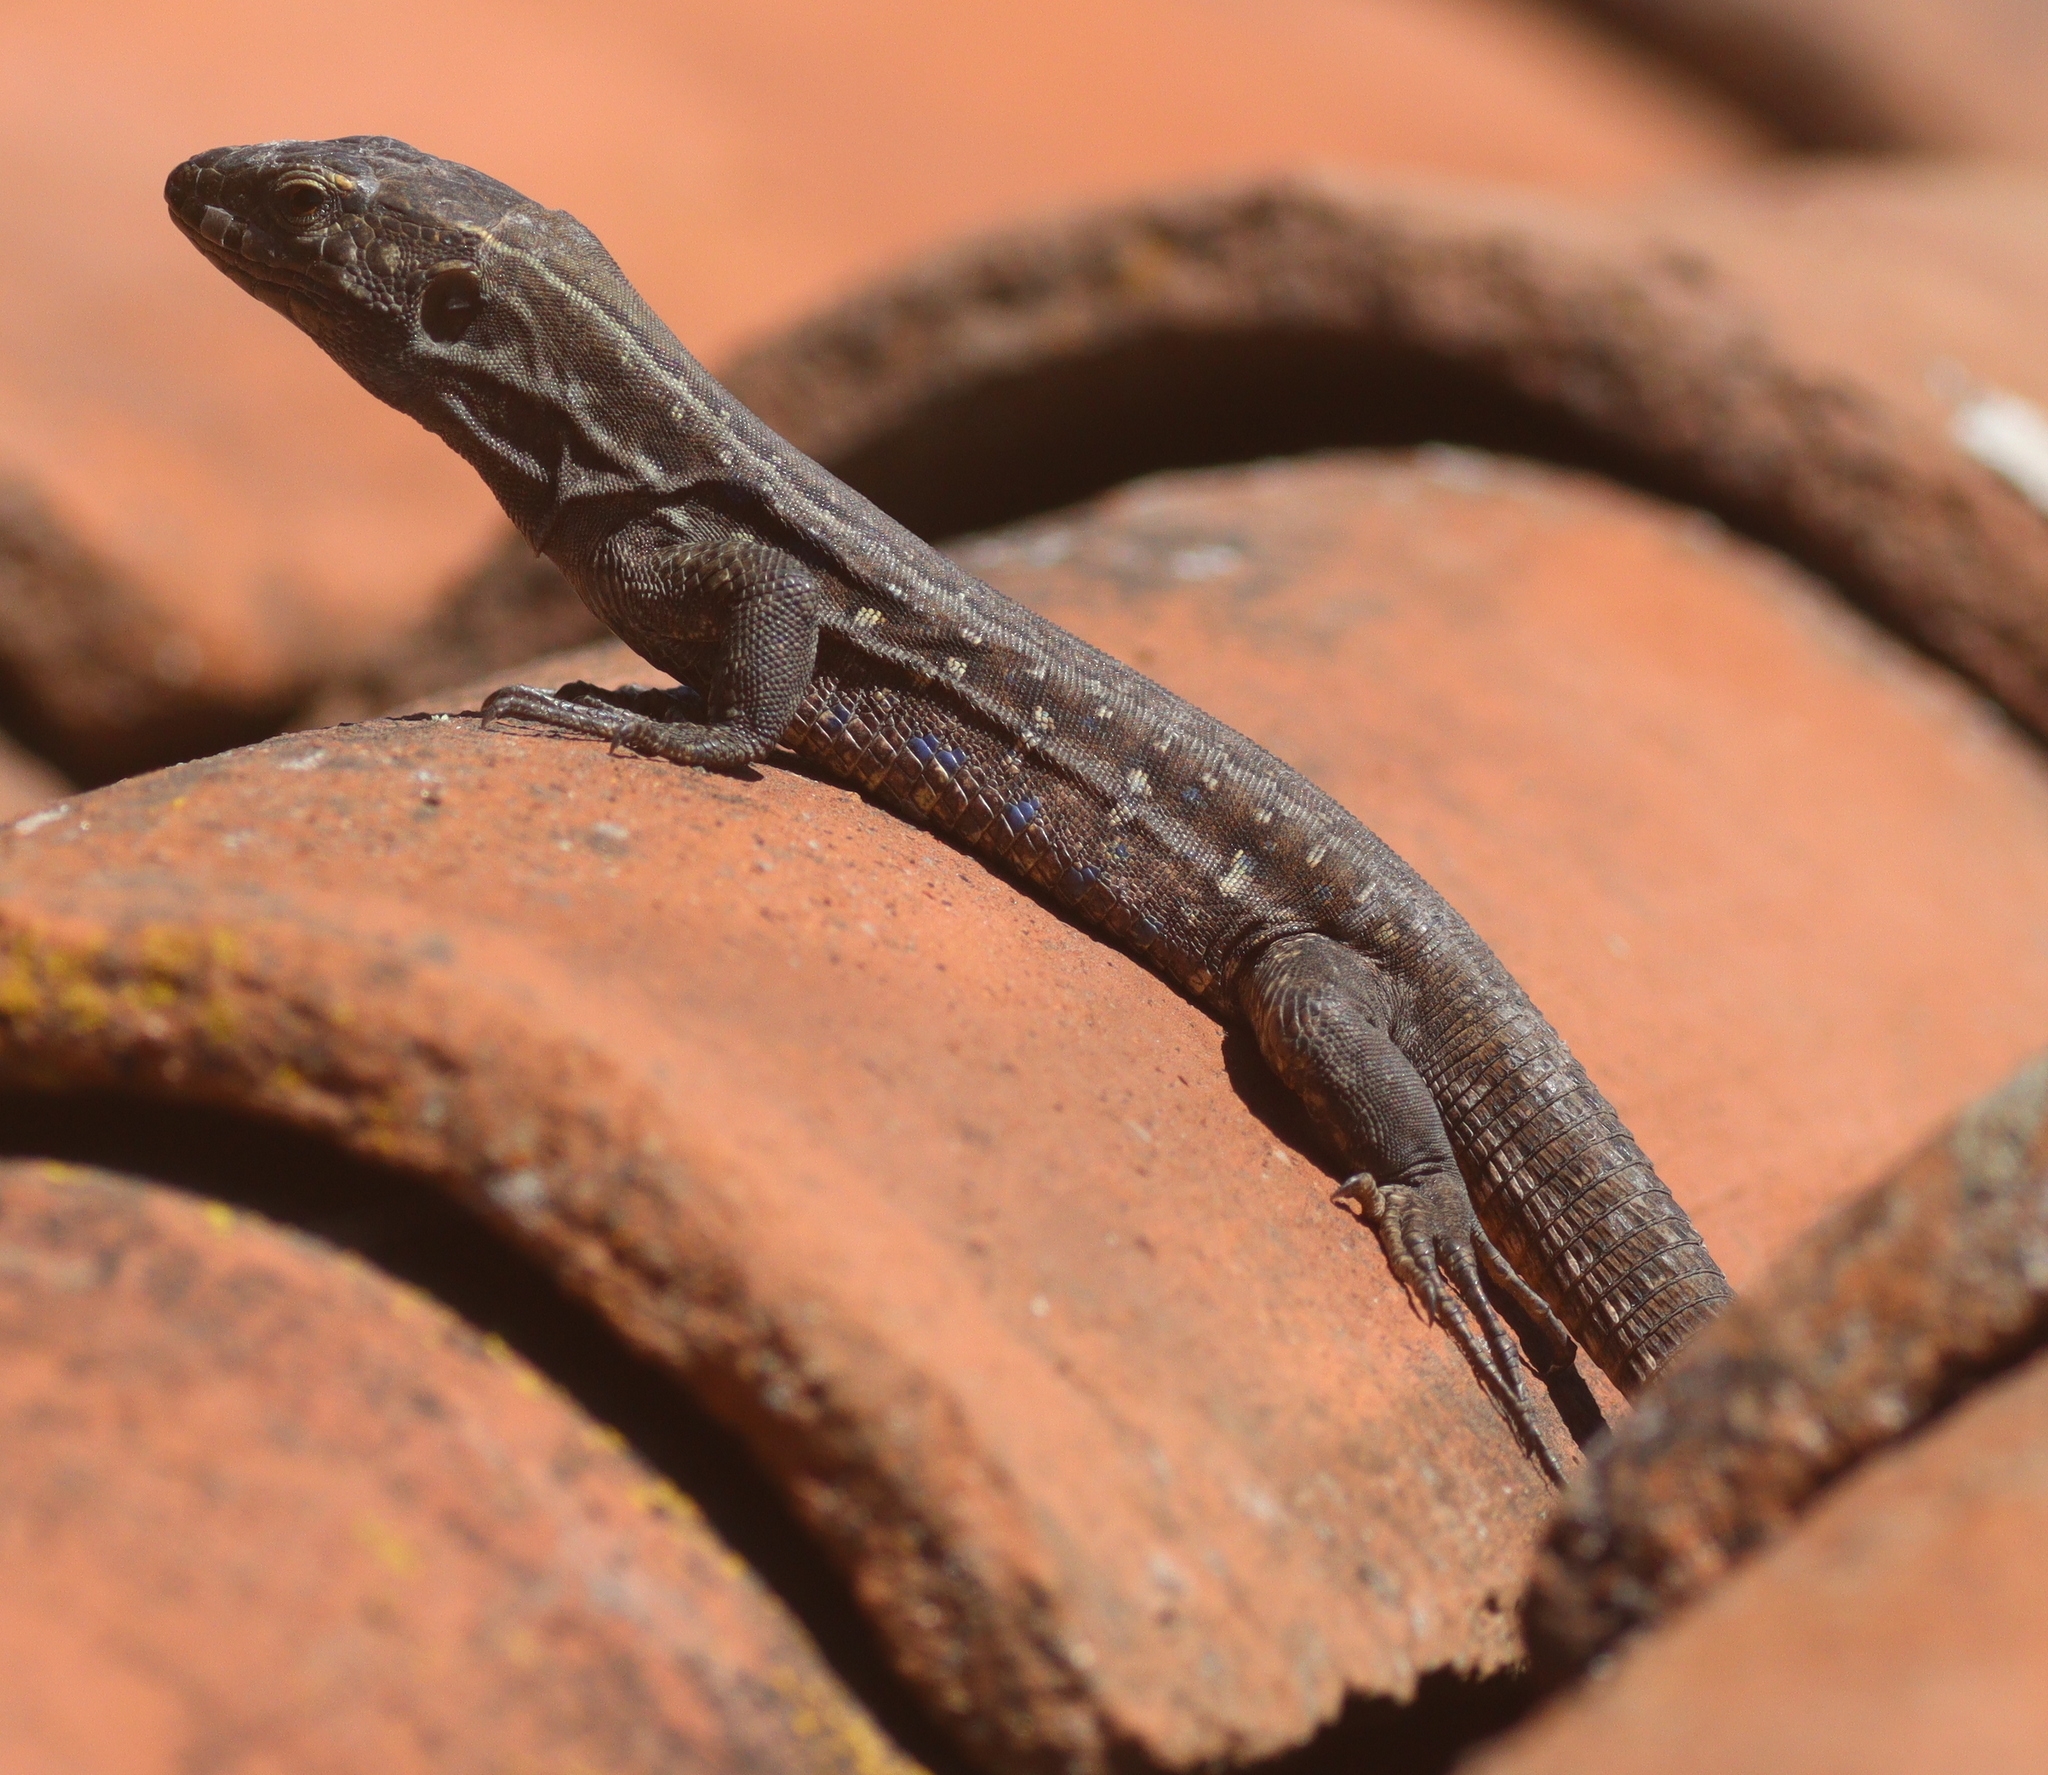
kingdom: Animalia
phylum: Chordata
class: Squamata
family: Lacertidae
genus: Gallotia
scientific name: Gallotia galloti
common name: Gallot's lizard
